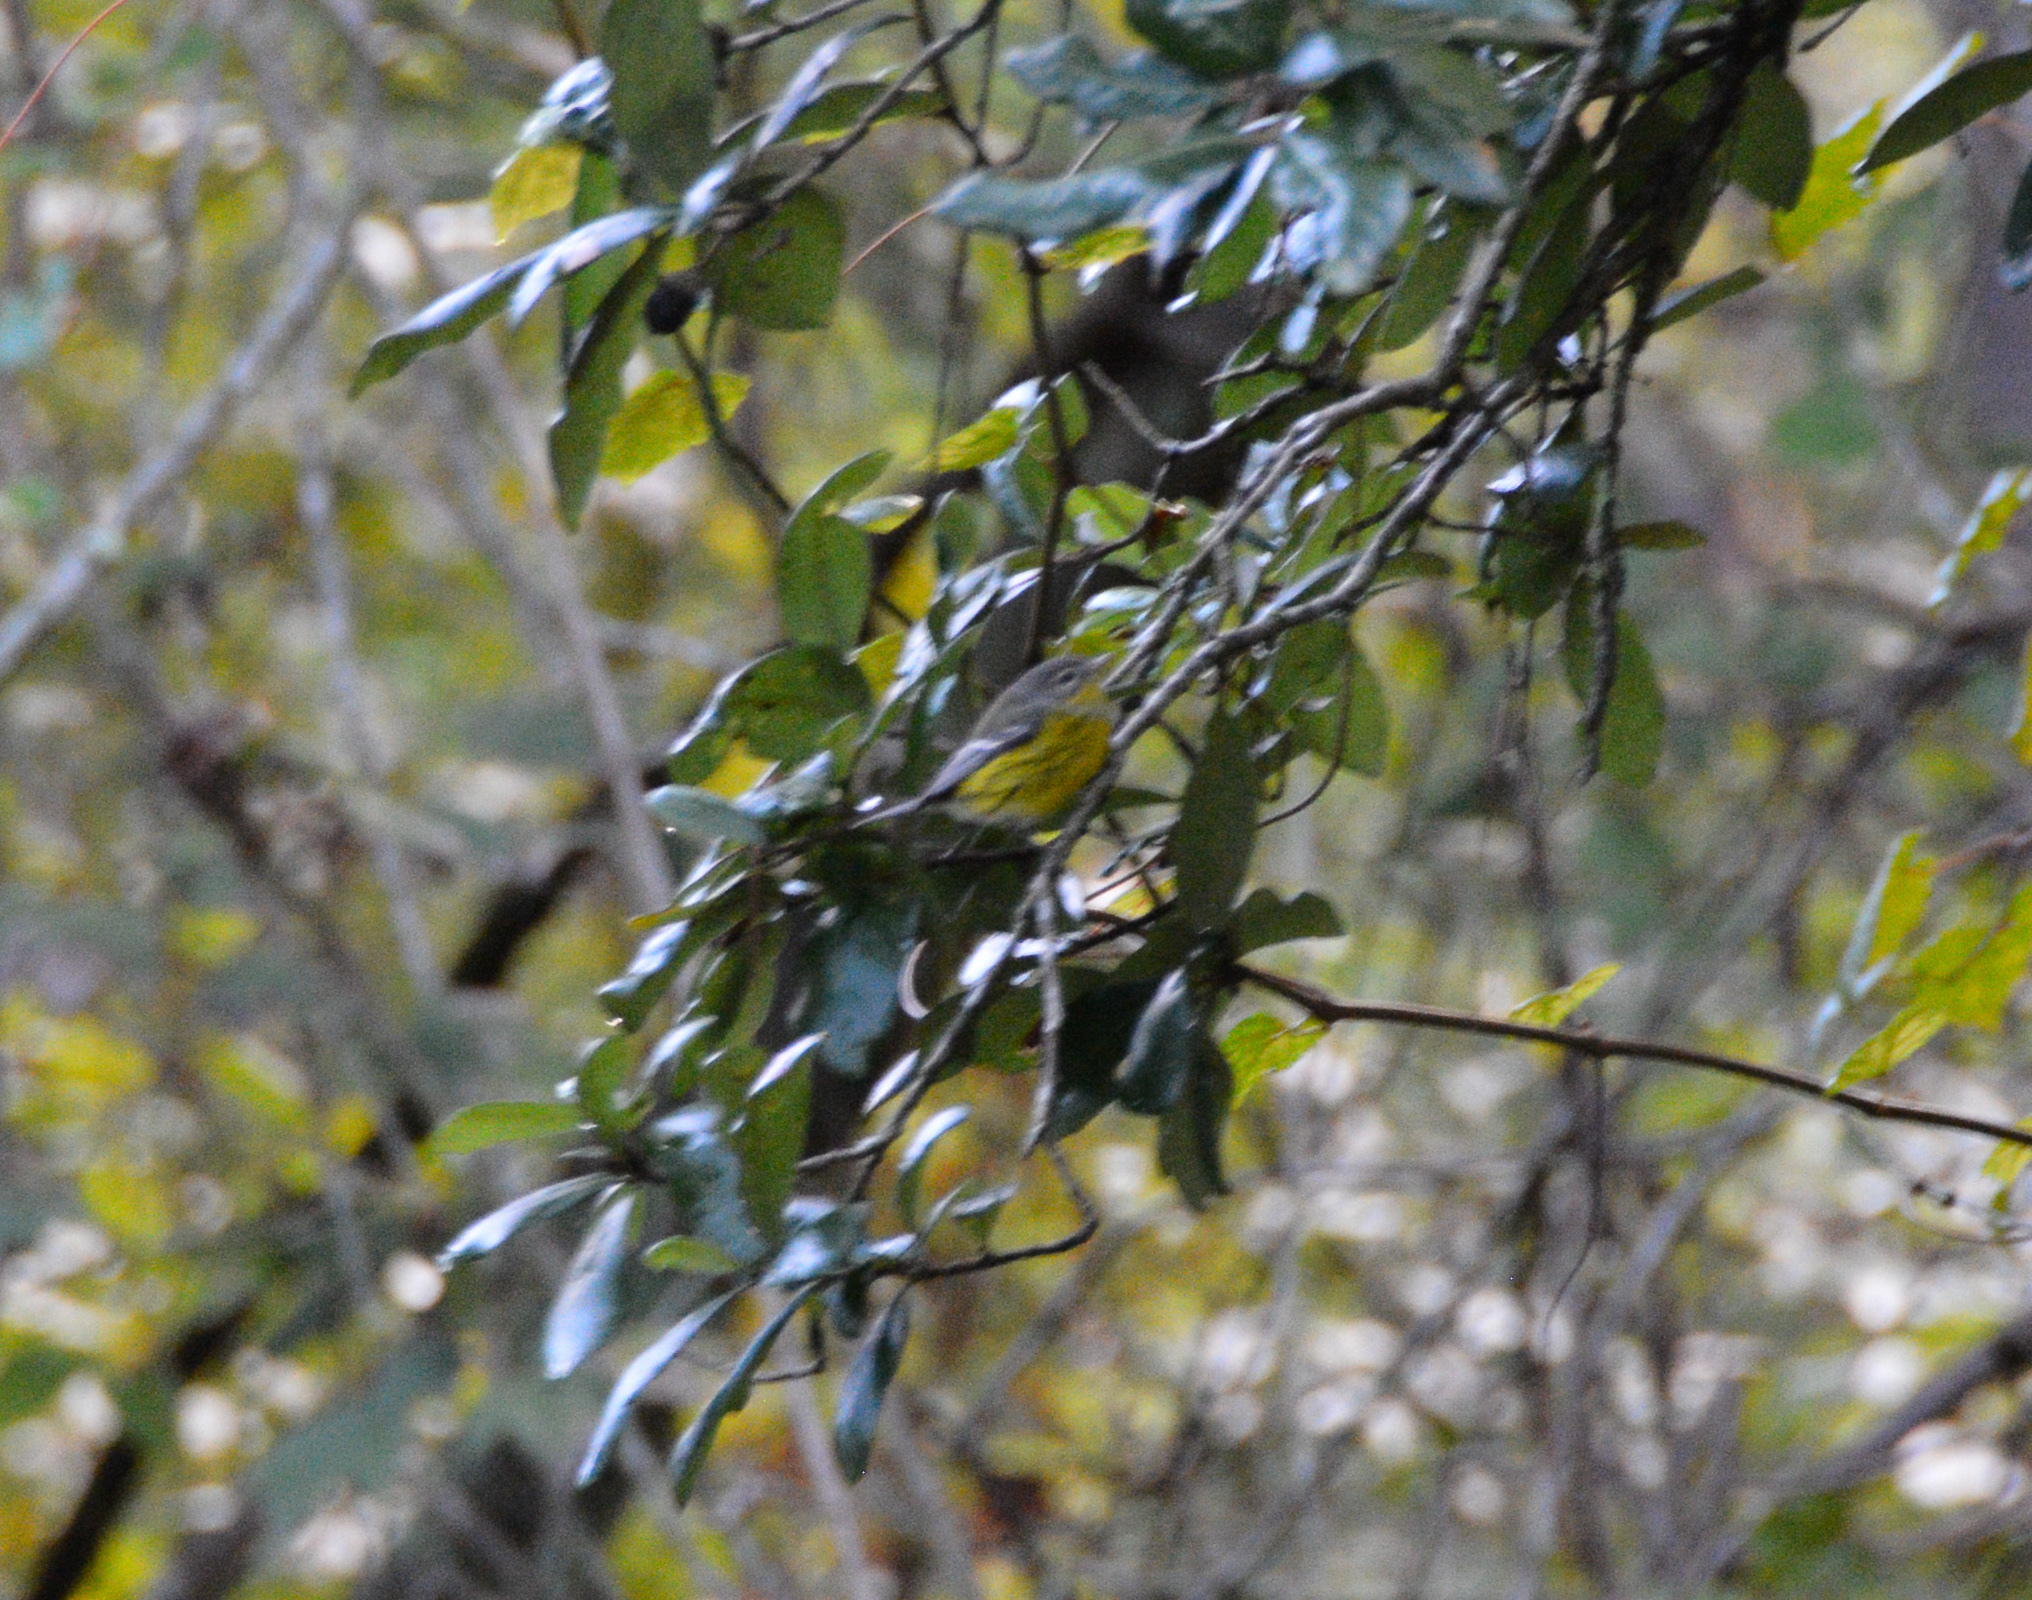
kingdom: Animalia
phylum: Chordata
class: Aves
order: Passeriformes
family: Parulidae
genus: Setophaga
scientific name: Setophaga magnolia
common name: Magnolia warbler
